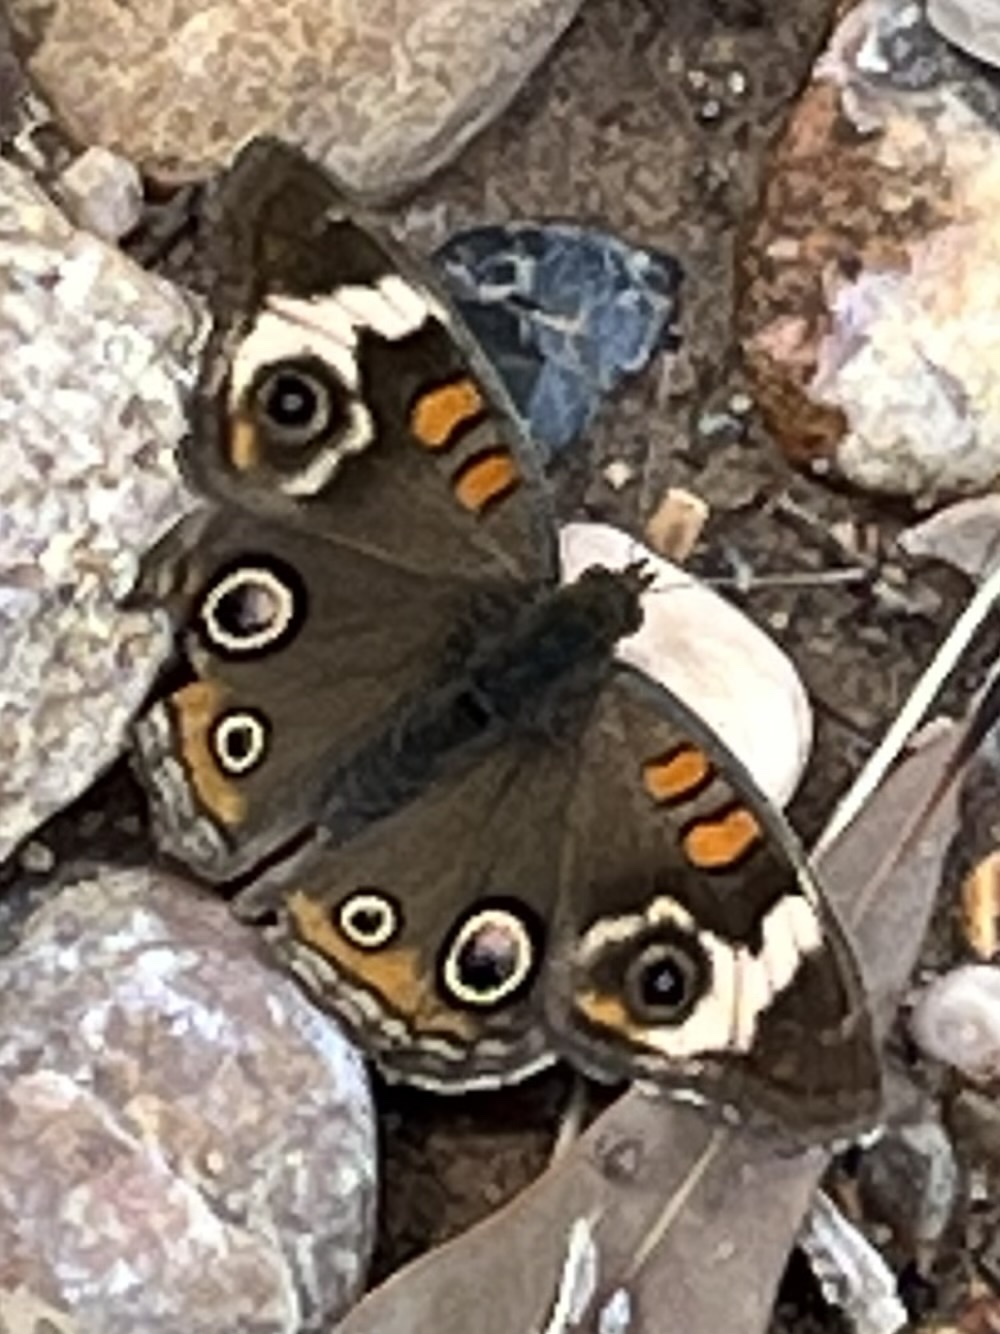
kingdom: Animalia
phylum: Arthropoda
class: Insecta
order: Lepidoptera
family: Nymphalidae
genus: Junonia
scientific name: Junonia coenia
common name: Common buckeye
